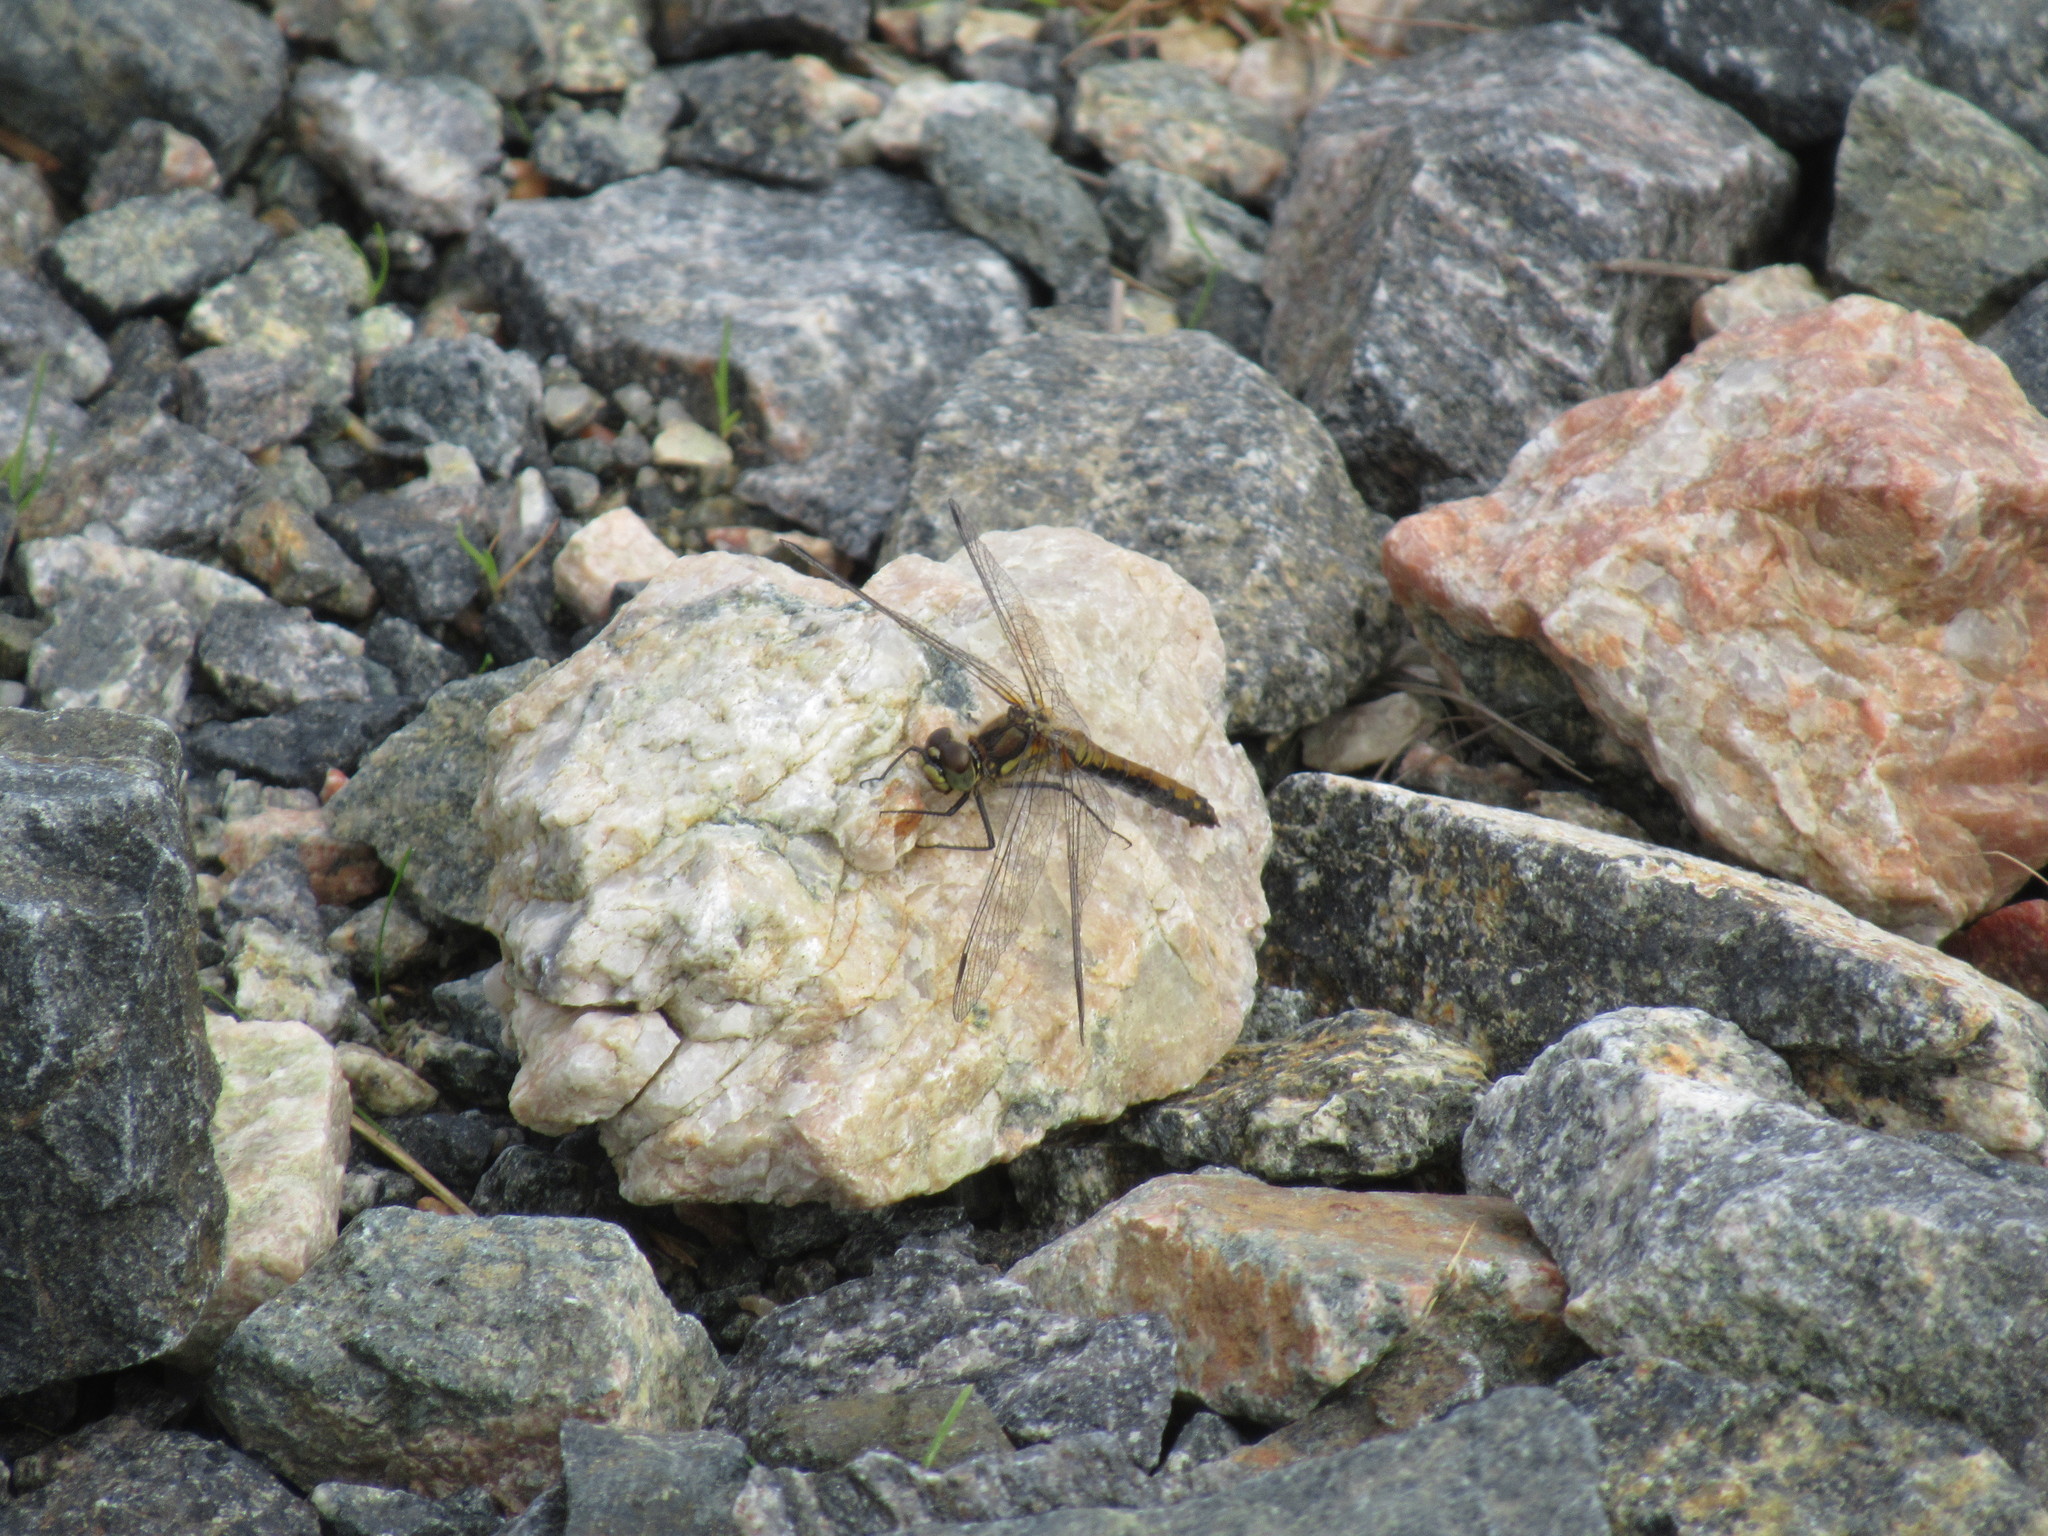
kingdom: Animalia
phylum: Arthropoda
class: Insecta
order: Odonata
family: Libellulidae
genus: Sympetrum
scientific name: Sympetrum danae
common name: Black darter
